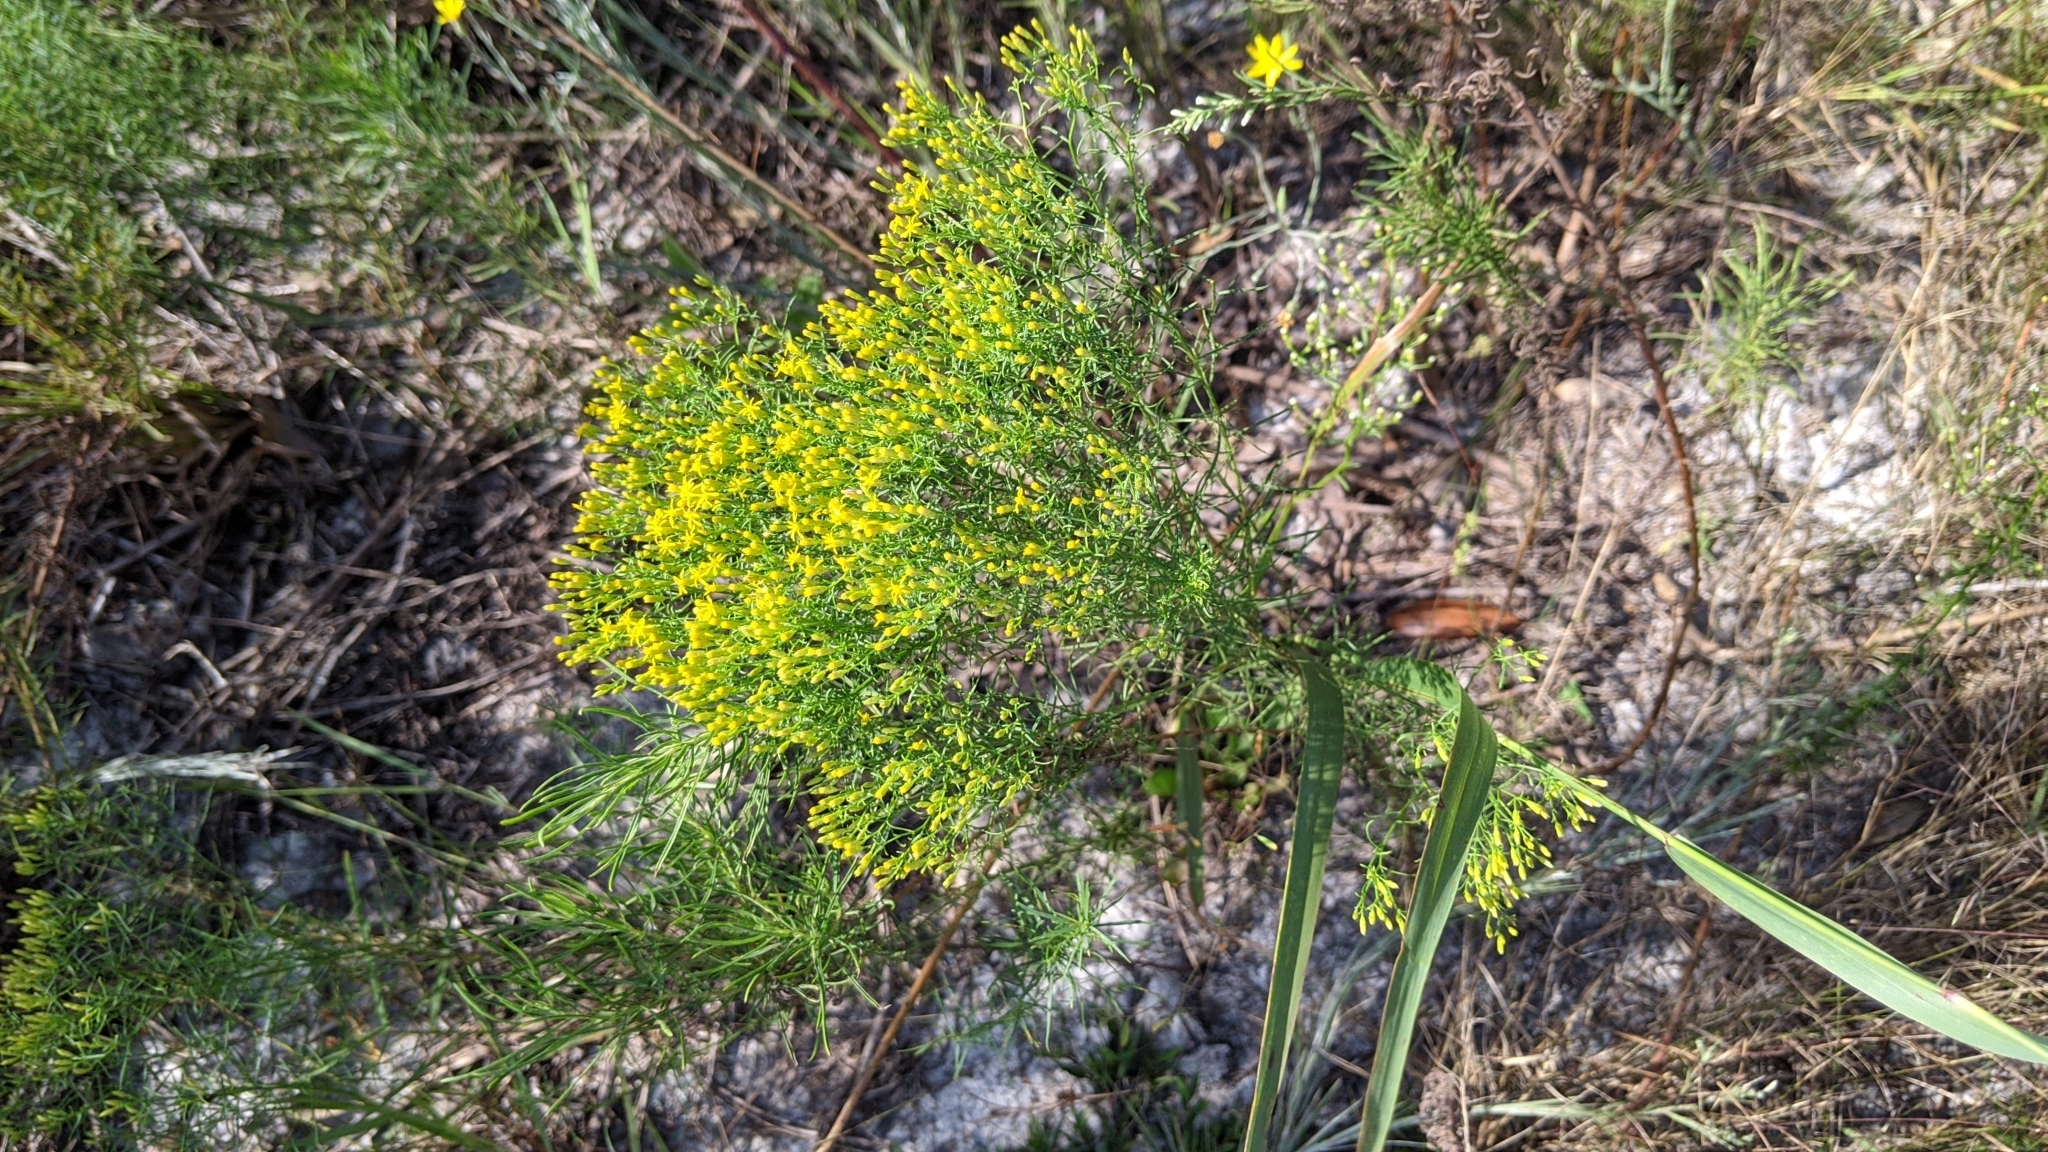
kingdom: Plantae
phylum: Tracheophyta
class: Magnoliopsida
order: Asterales
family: Asteraceae
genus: Euthamia
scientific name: Euthamia caroliniana
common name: Coastal plain goldentop
